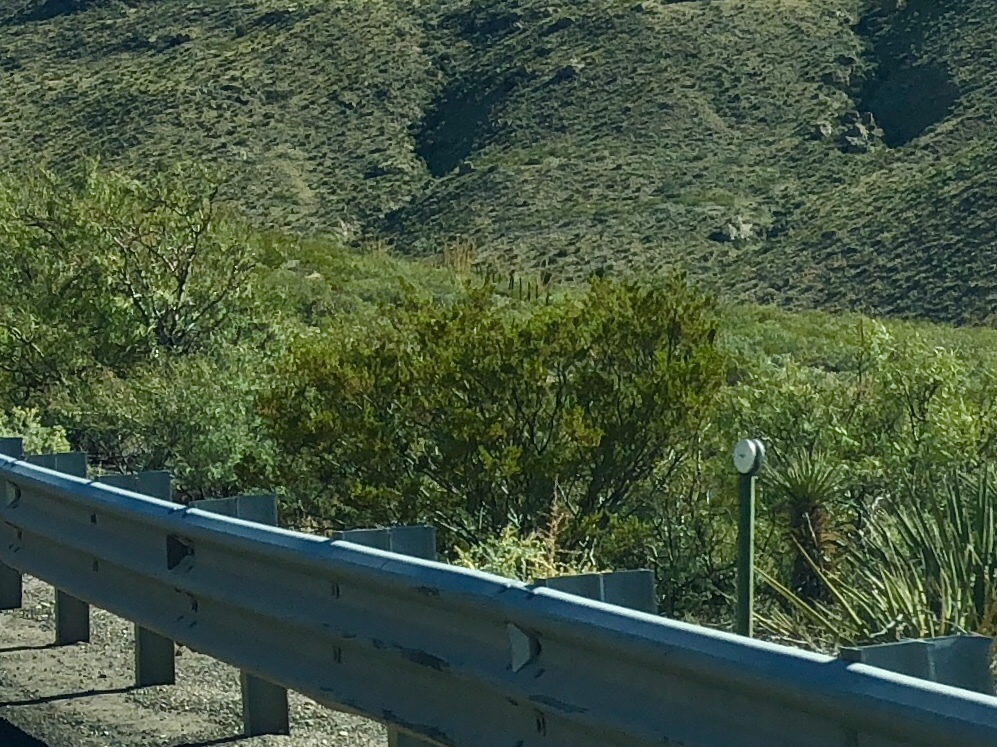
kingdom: Plantae
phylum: Tracheophyta
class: Magnoliopsida
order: Zygophyllales
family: Zygophyllaceae
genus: Larrea
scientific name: Larrea tridentata
